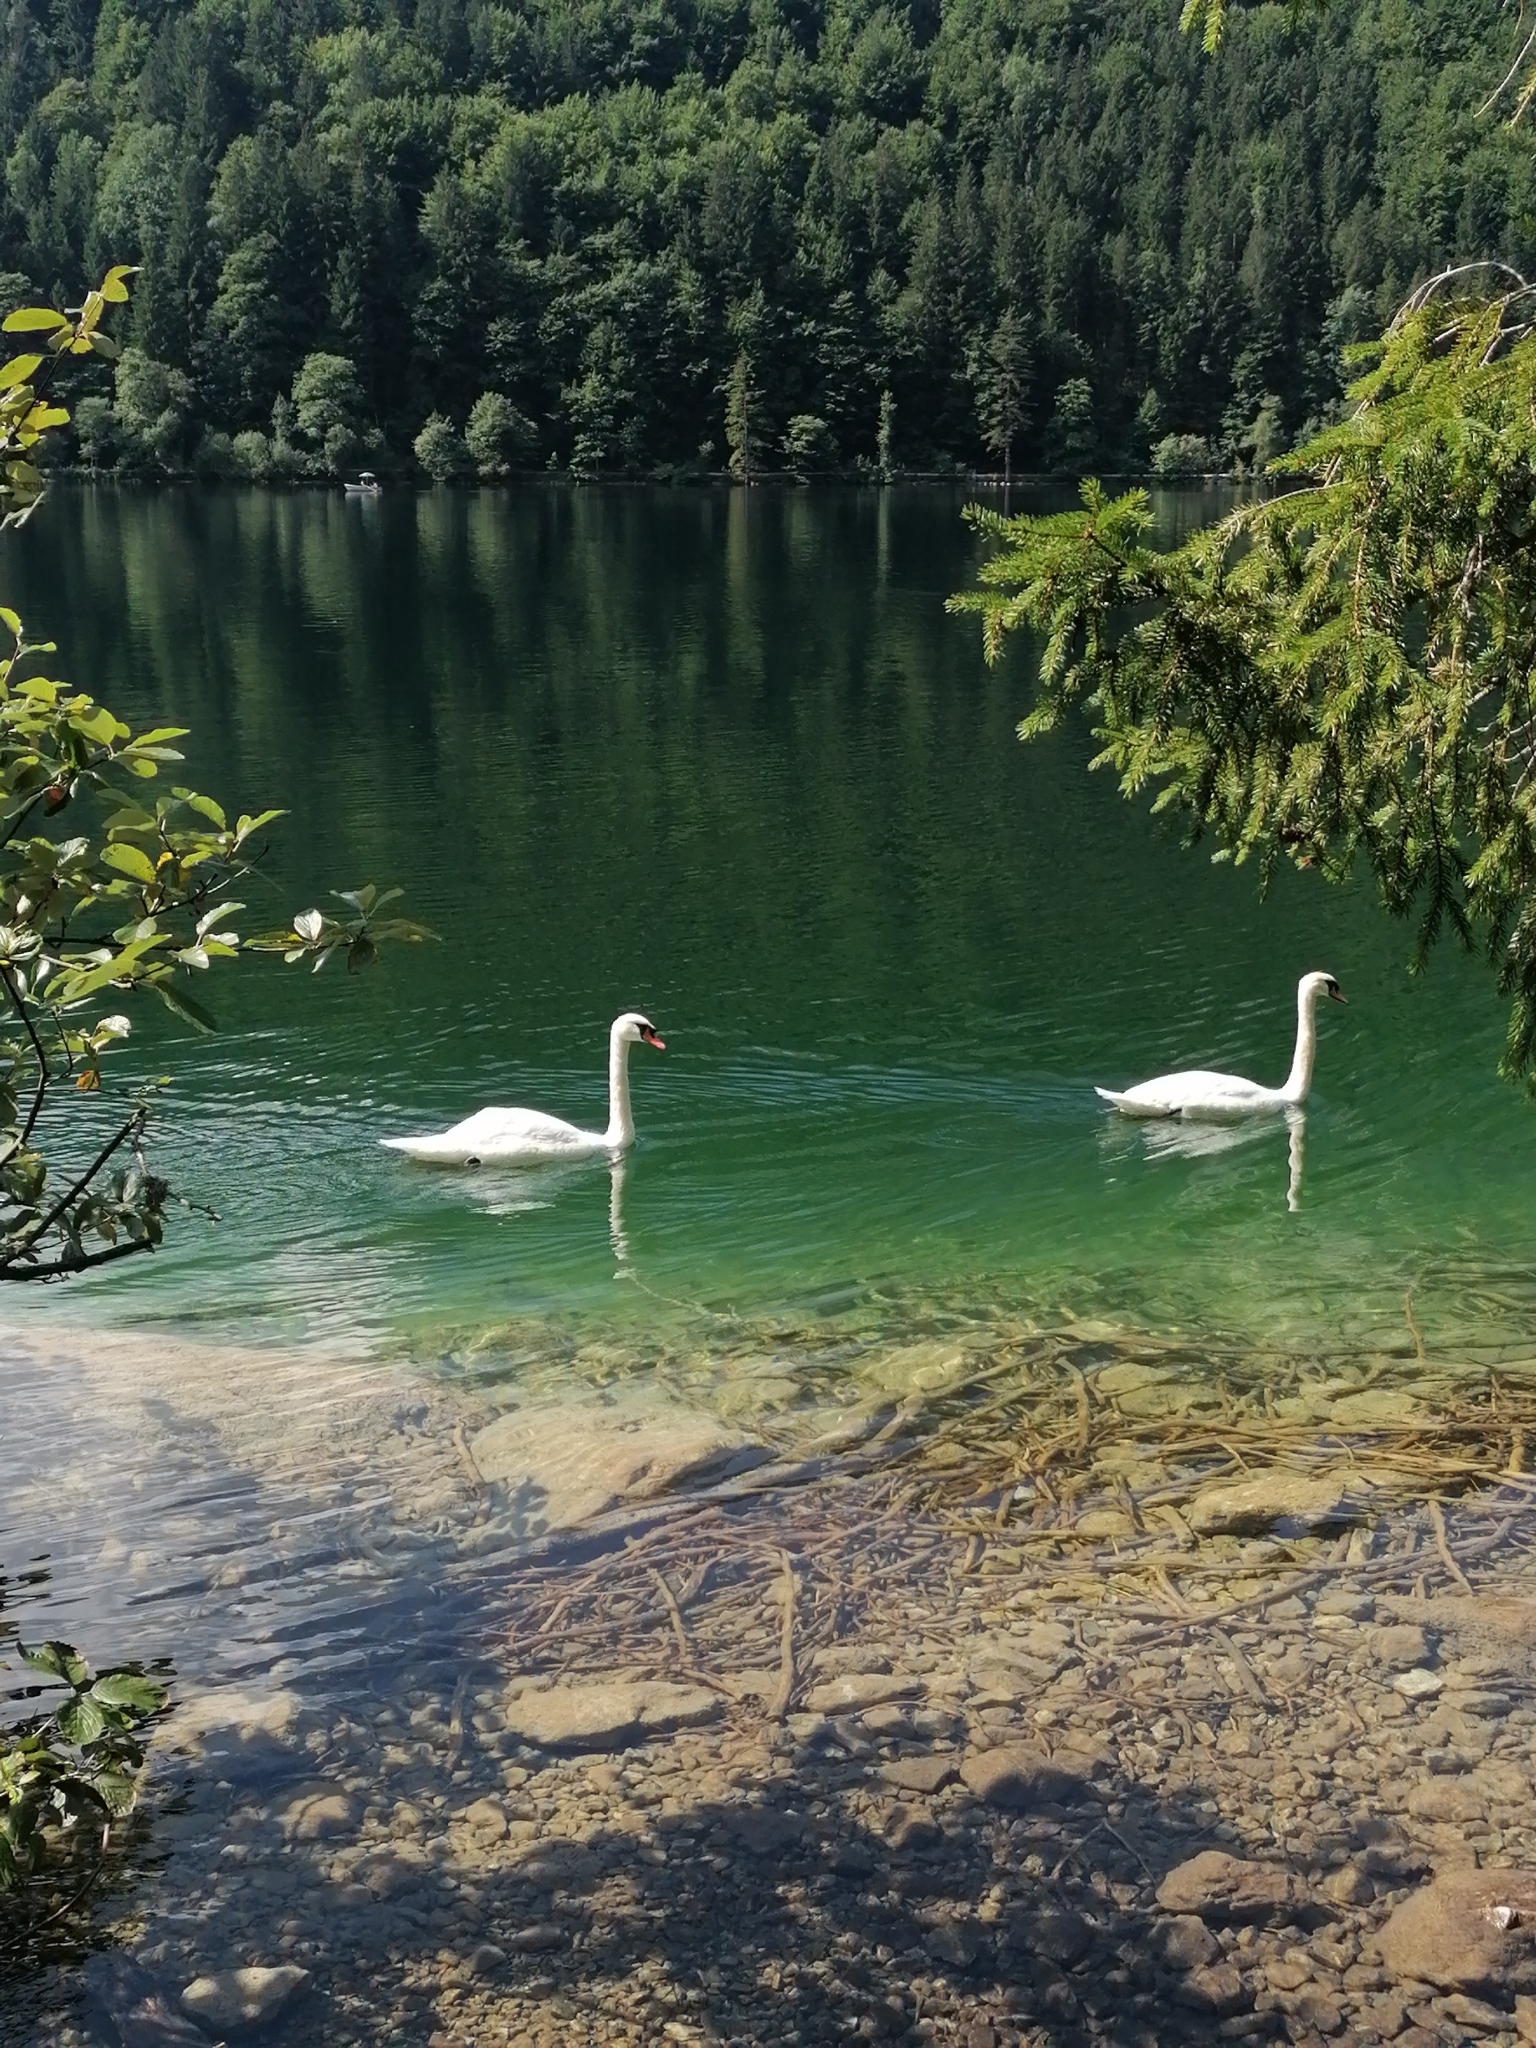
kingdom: Animalia
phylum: Chordata
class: Aves
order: Anseriformes
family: Anatidae
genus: Cygnus
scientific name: Cygnus olor
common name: Mute swan
